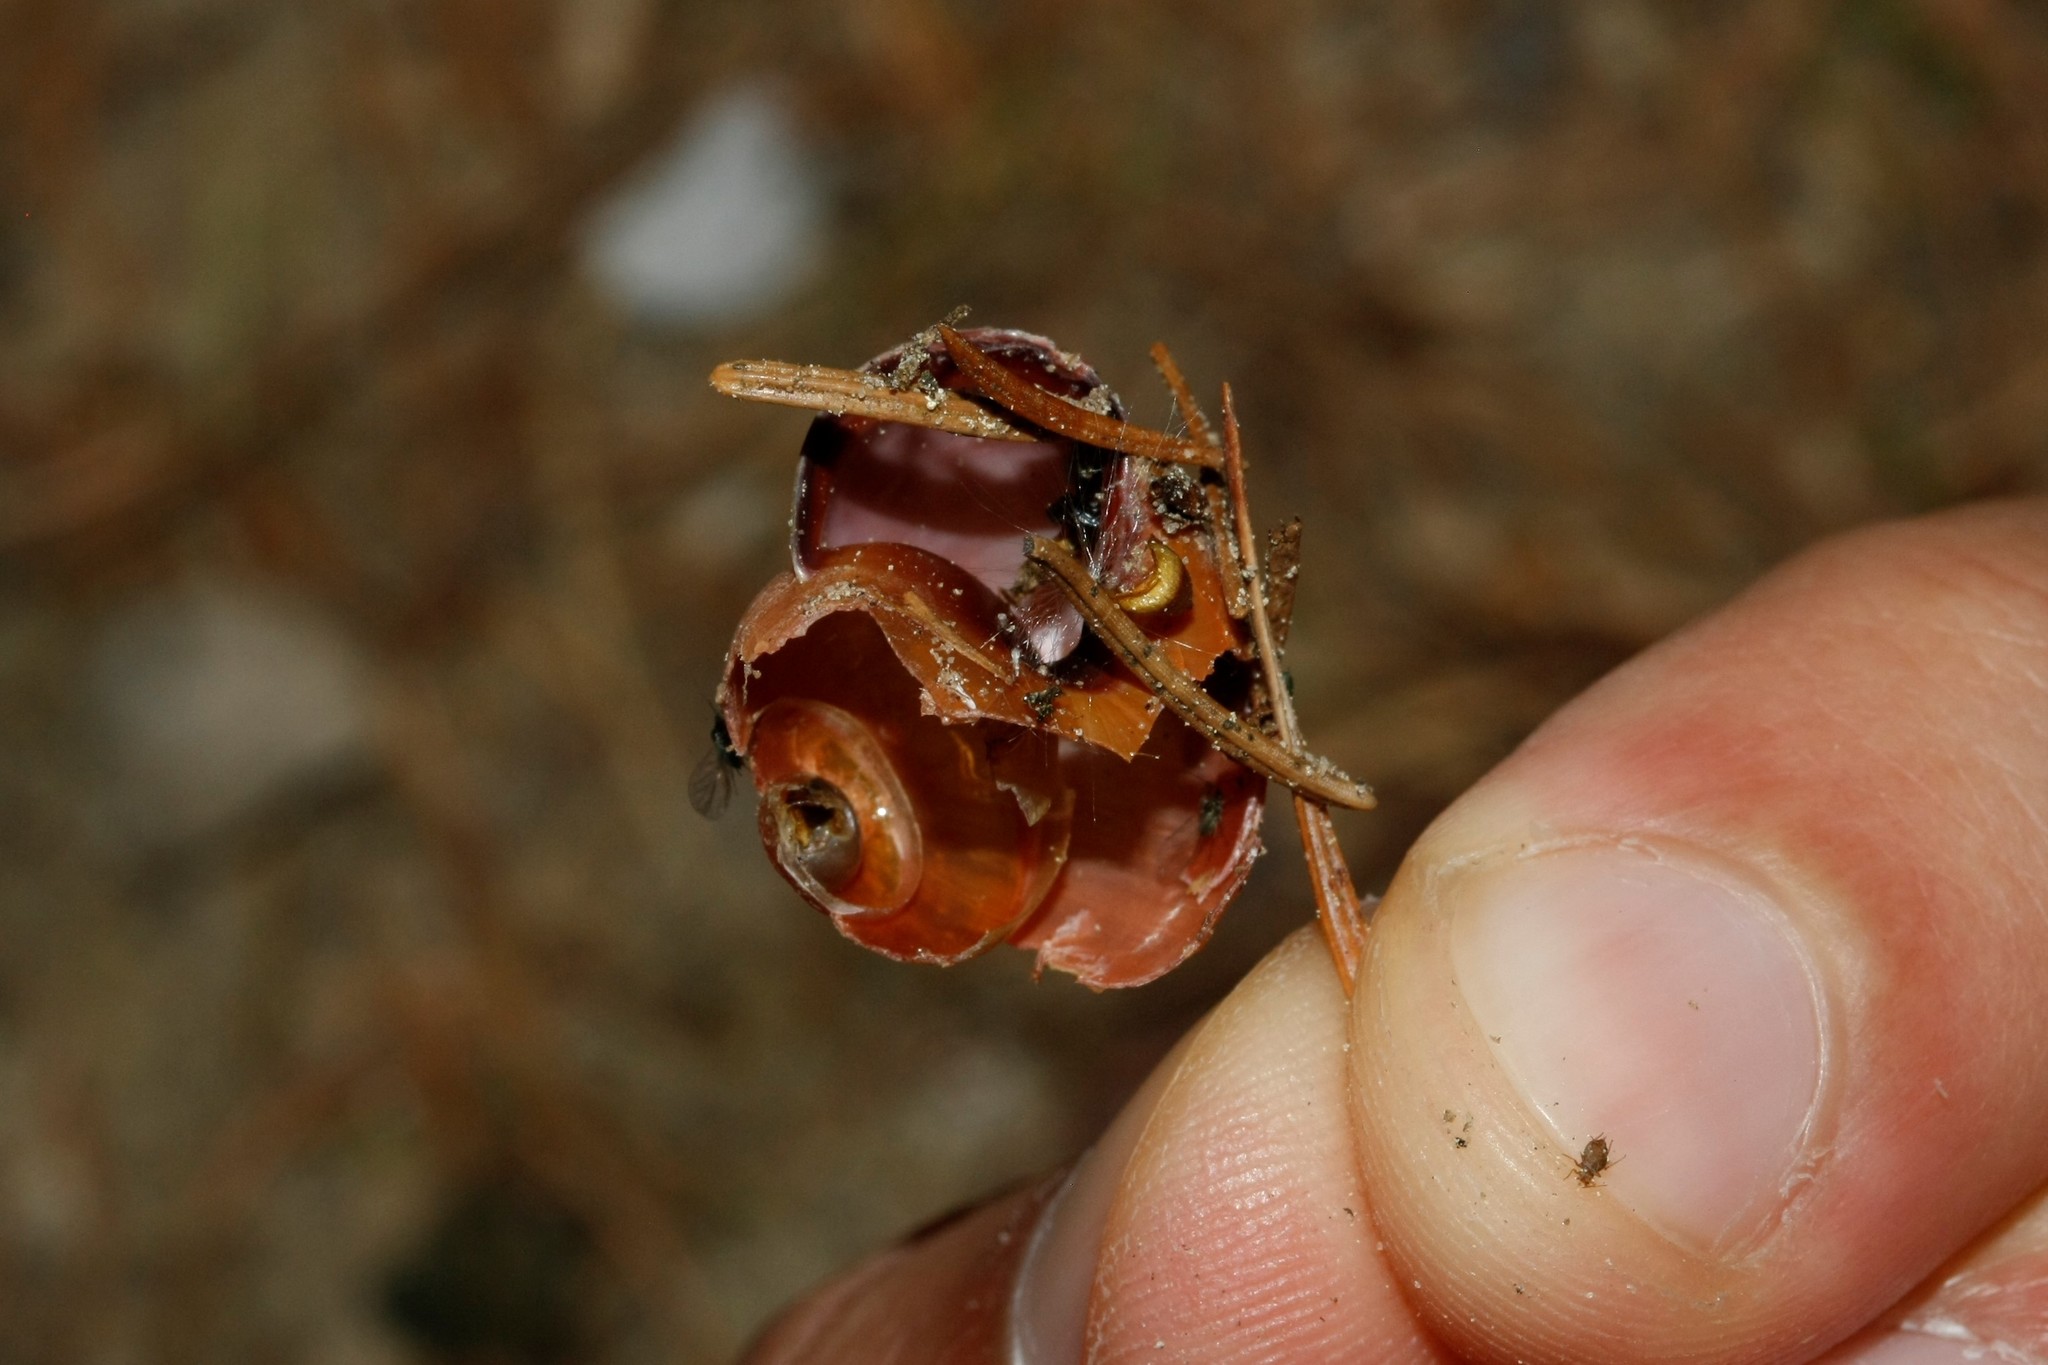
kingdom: Animalia
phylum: Mollusca
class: Gastropoda
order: Stylommatophora
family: Helicidae
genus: Cepaea
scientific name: Cepaea nemoralis
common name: Grovesnail
